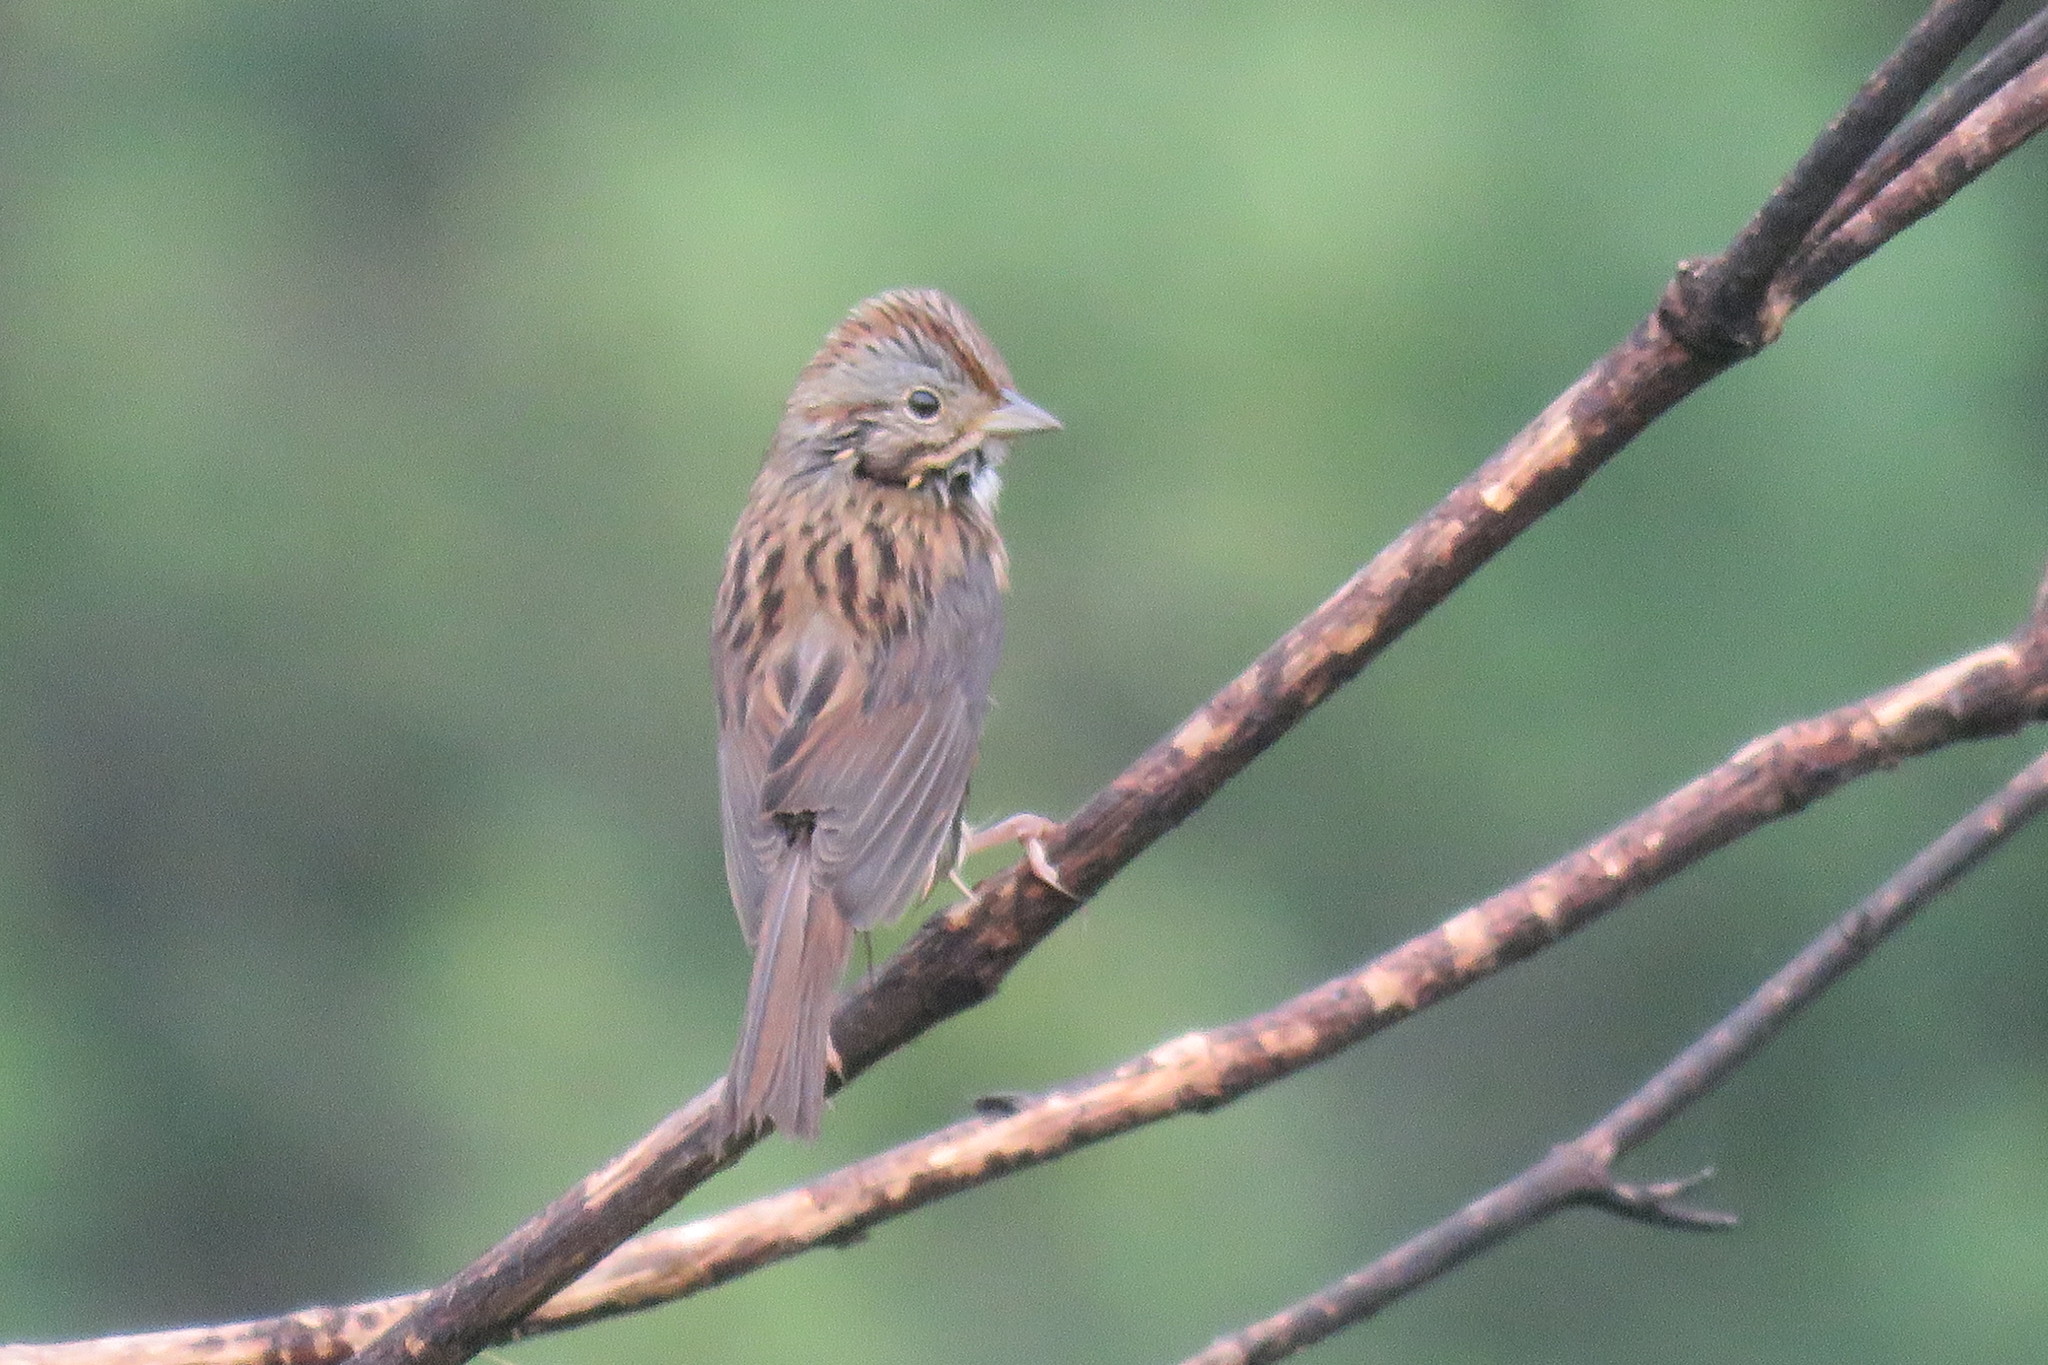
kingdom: Animalia
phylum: Chordata
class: Aves
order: Passeriformes
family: Passerellidae
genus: Melospiza
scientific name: Melospiza lincolnii
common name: Lincoln's sparrow
